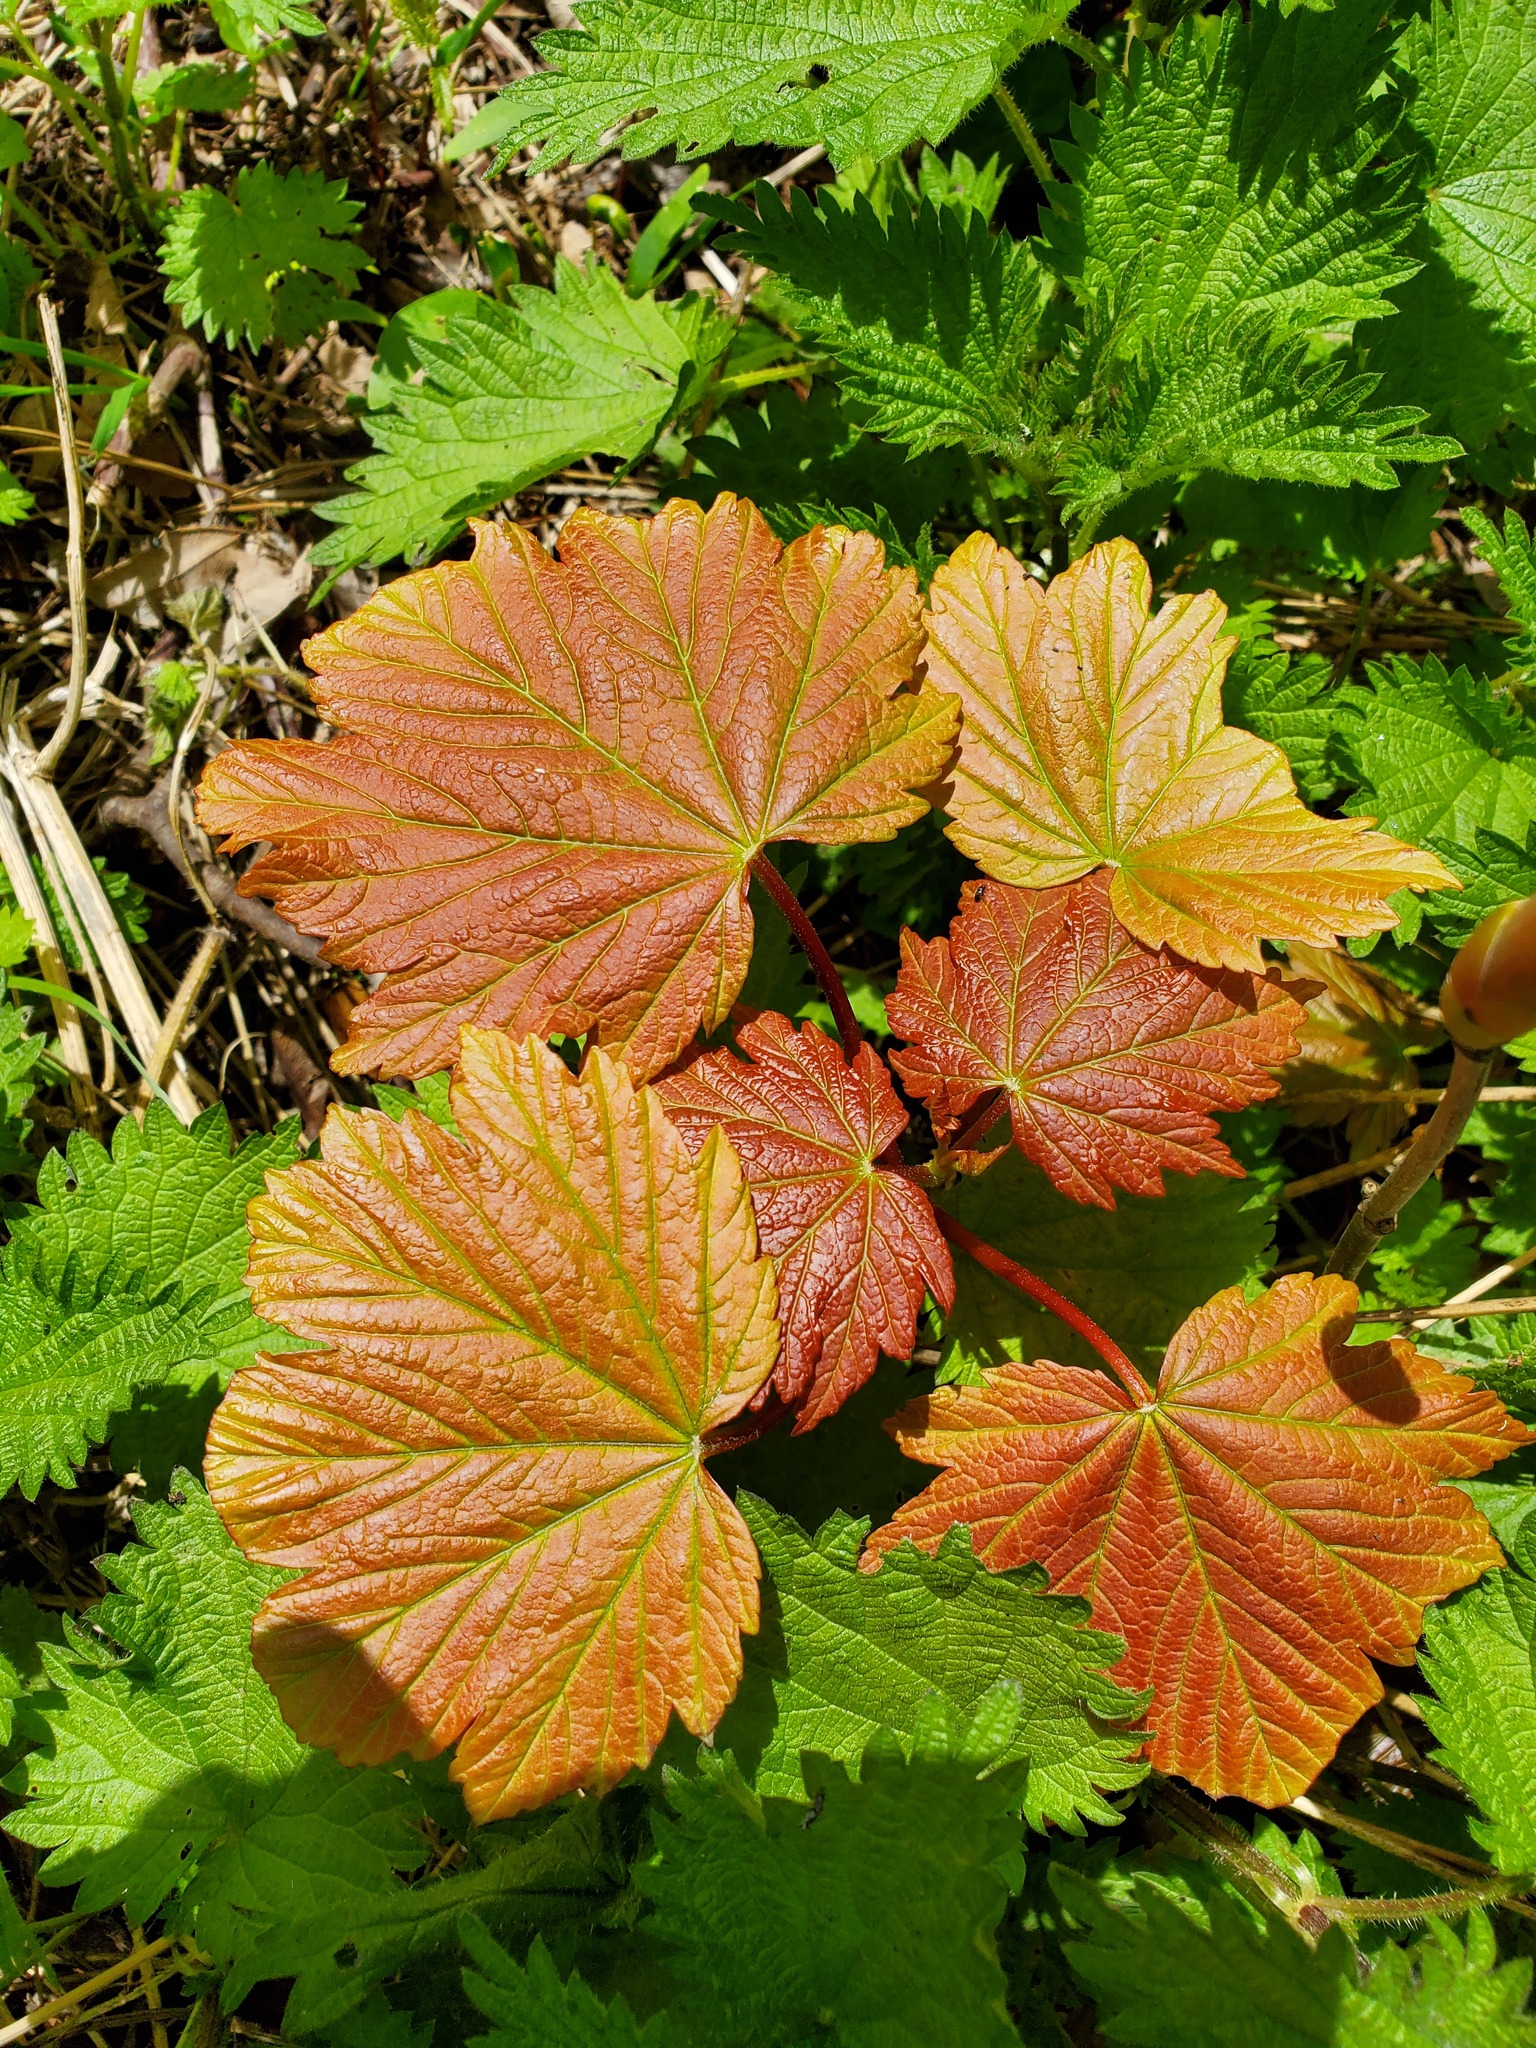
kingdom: Plantae
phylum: Tracheophyta
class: Magnoliopsida
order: Sapindales
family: Sapindaceae
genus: Acer
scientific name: Acer pseudoplatanus
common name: Sycamore
